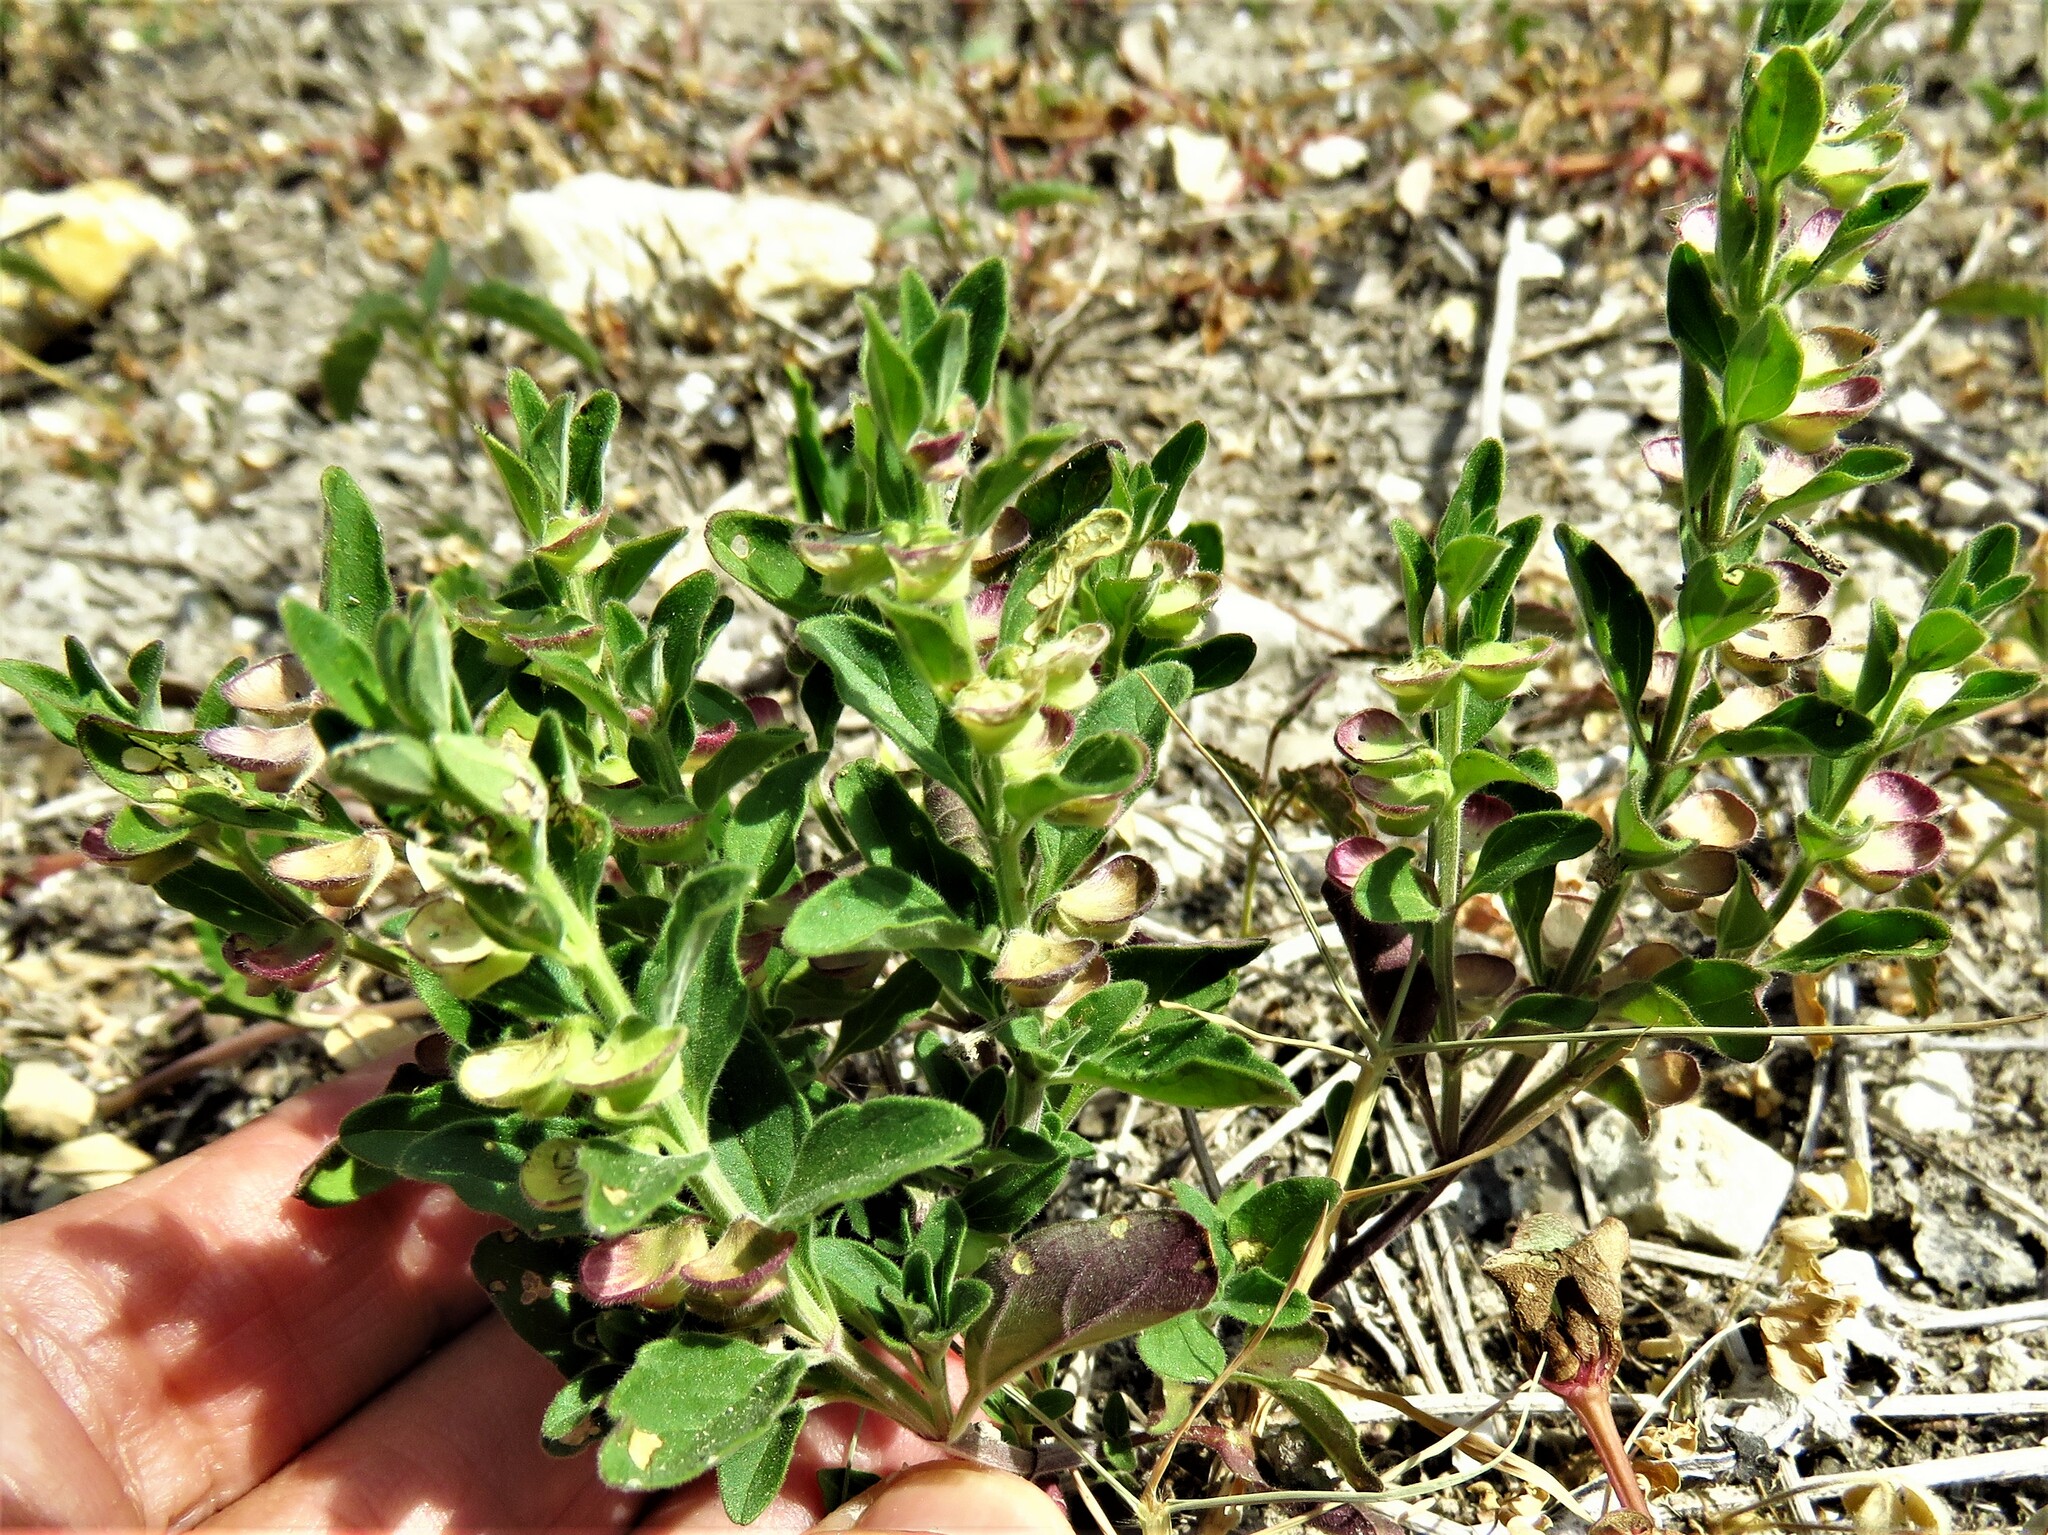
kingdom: Plantae
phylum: Tracheophyta
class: Magnoliopsida
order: Lamiales
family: Lamiaceae
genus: Scutellaria
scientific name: Scutellaria drummondii
